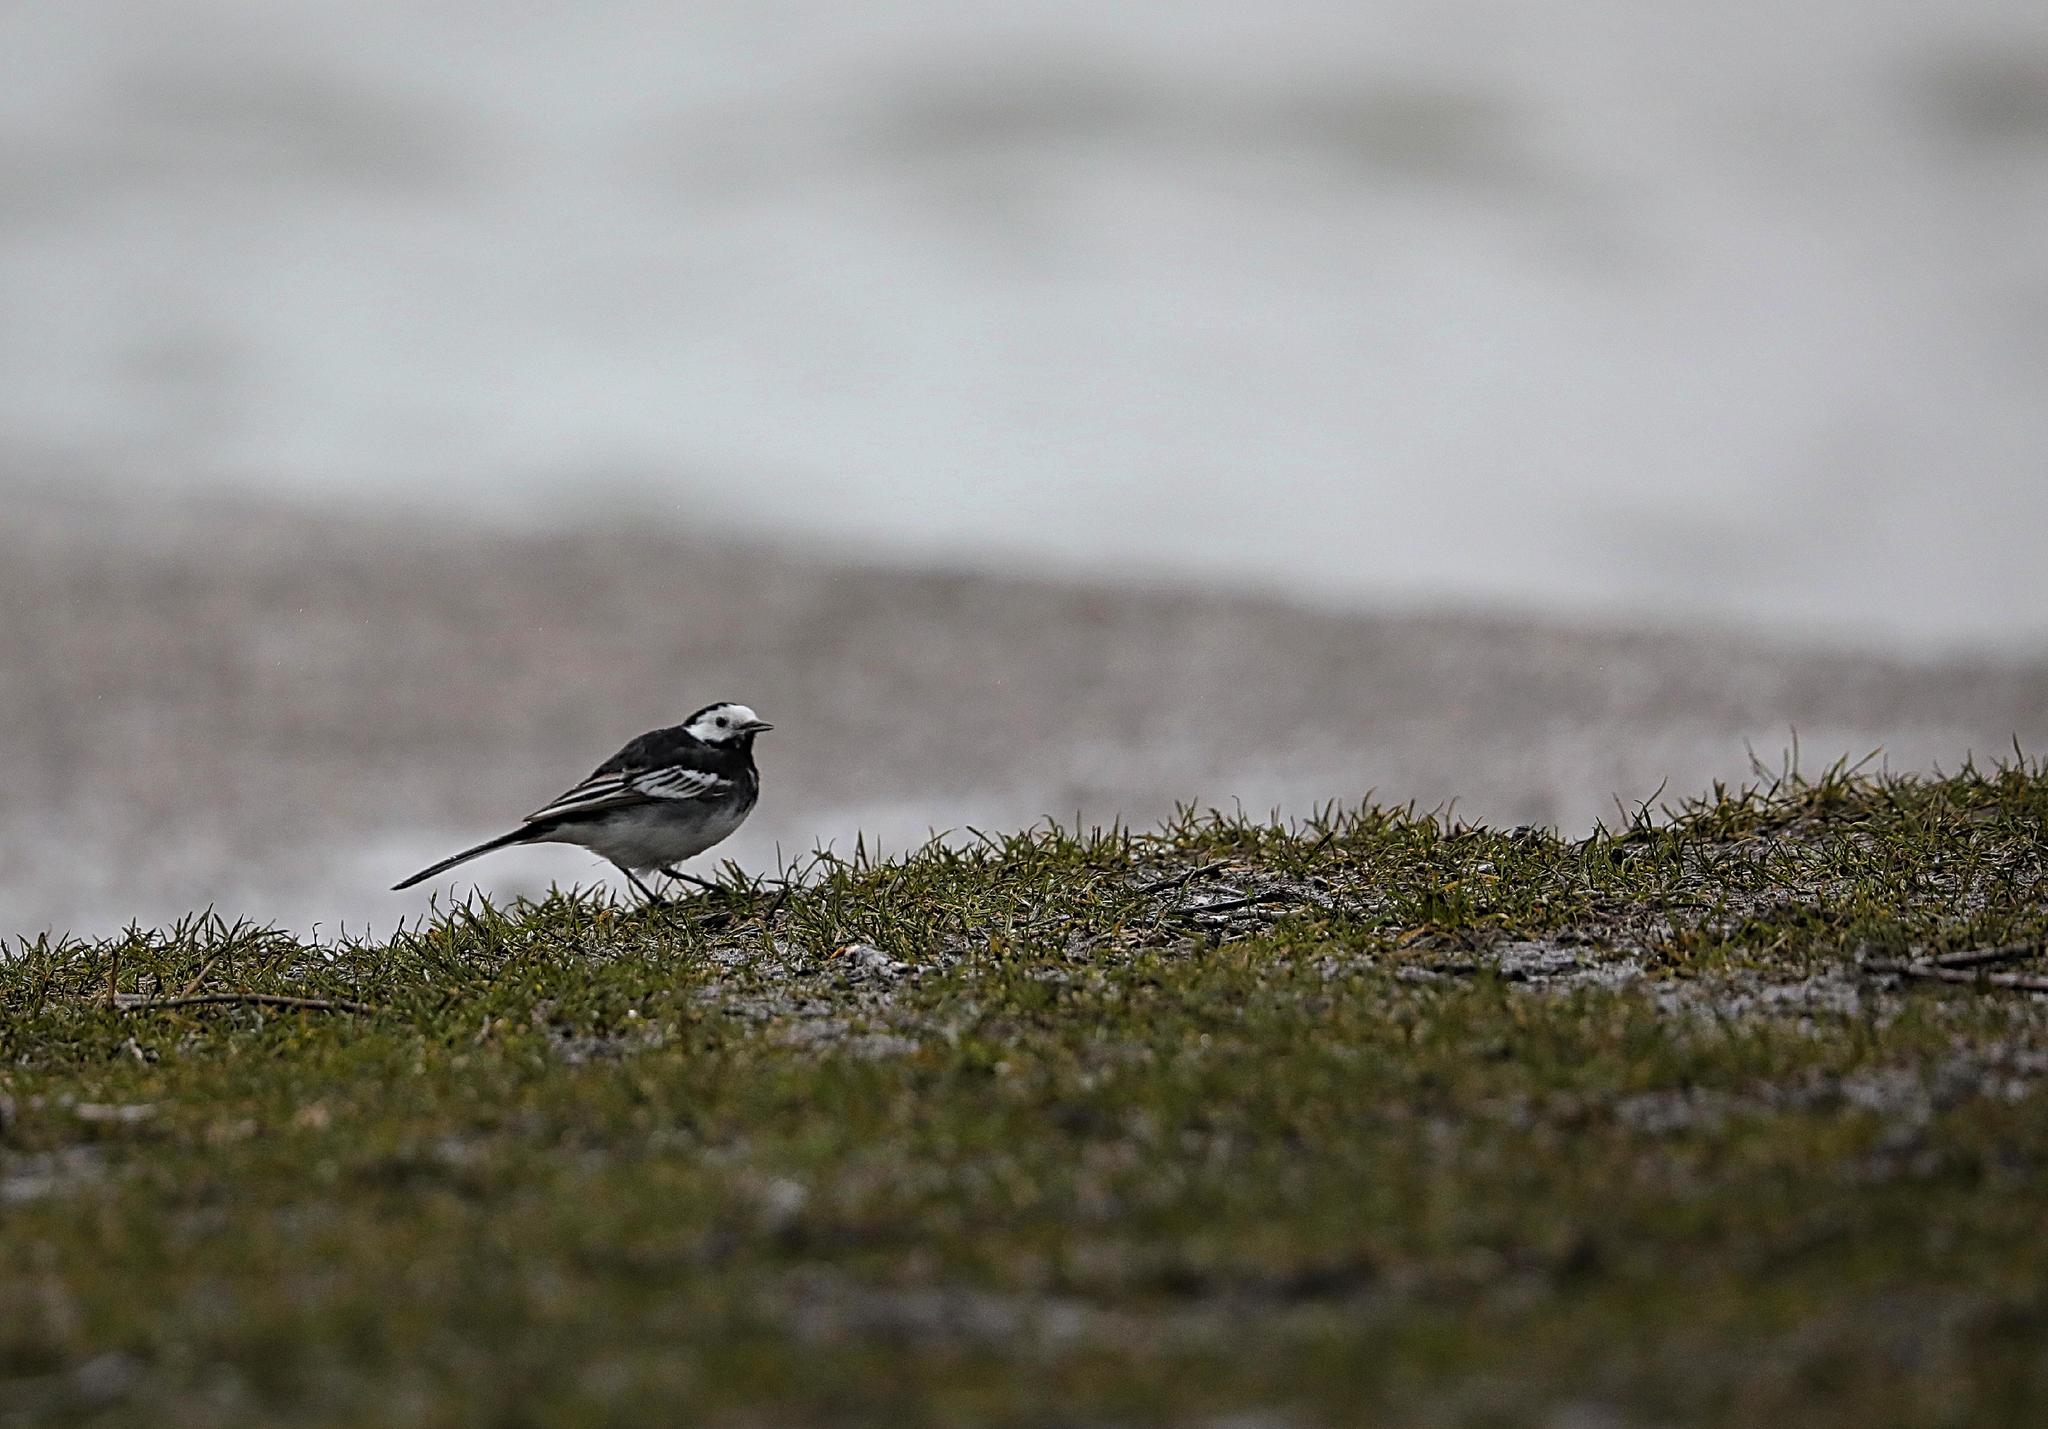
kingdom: Animalia
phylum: Chordata
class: Aves
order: Passeriformes
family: Motacillidae
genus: Motacilla
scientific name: Motacilla alba
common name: White wagtail
